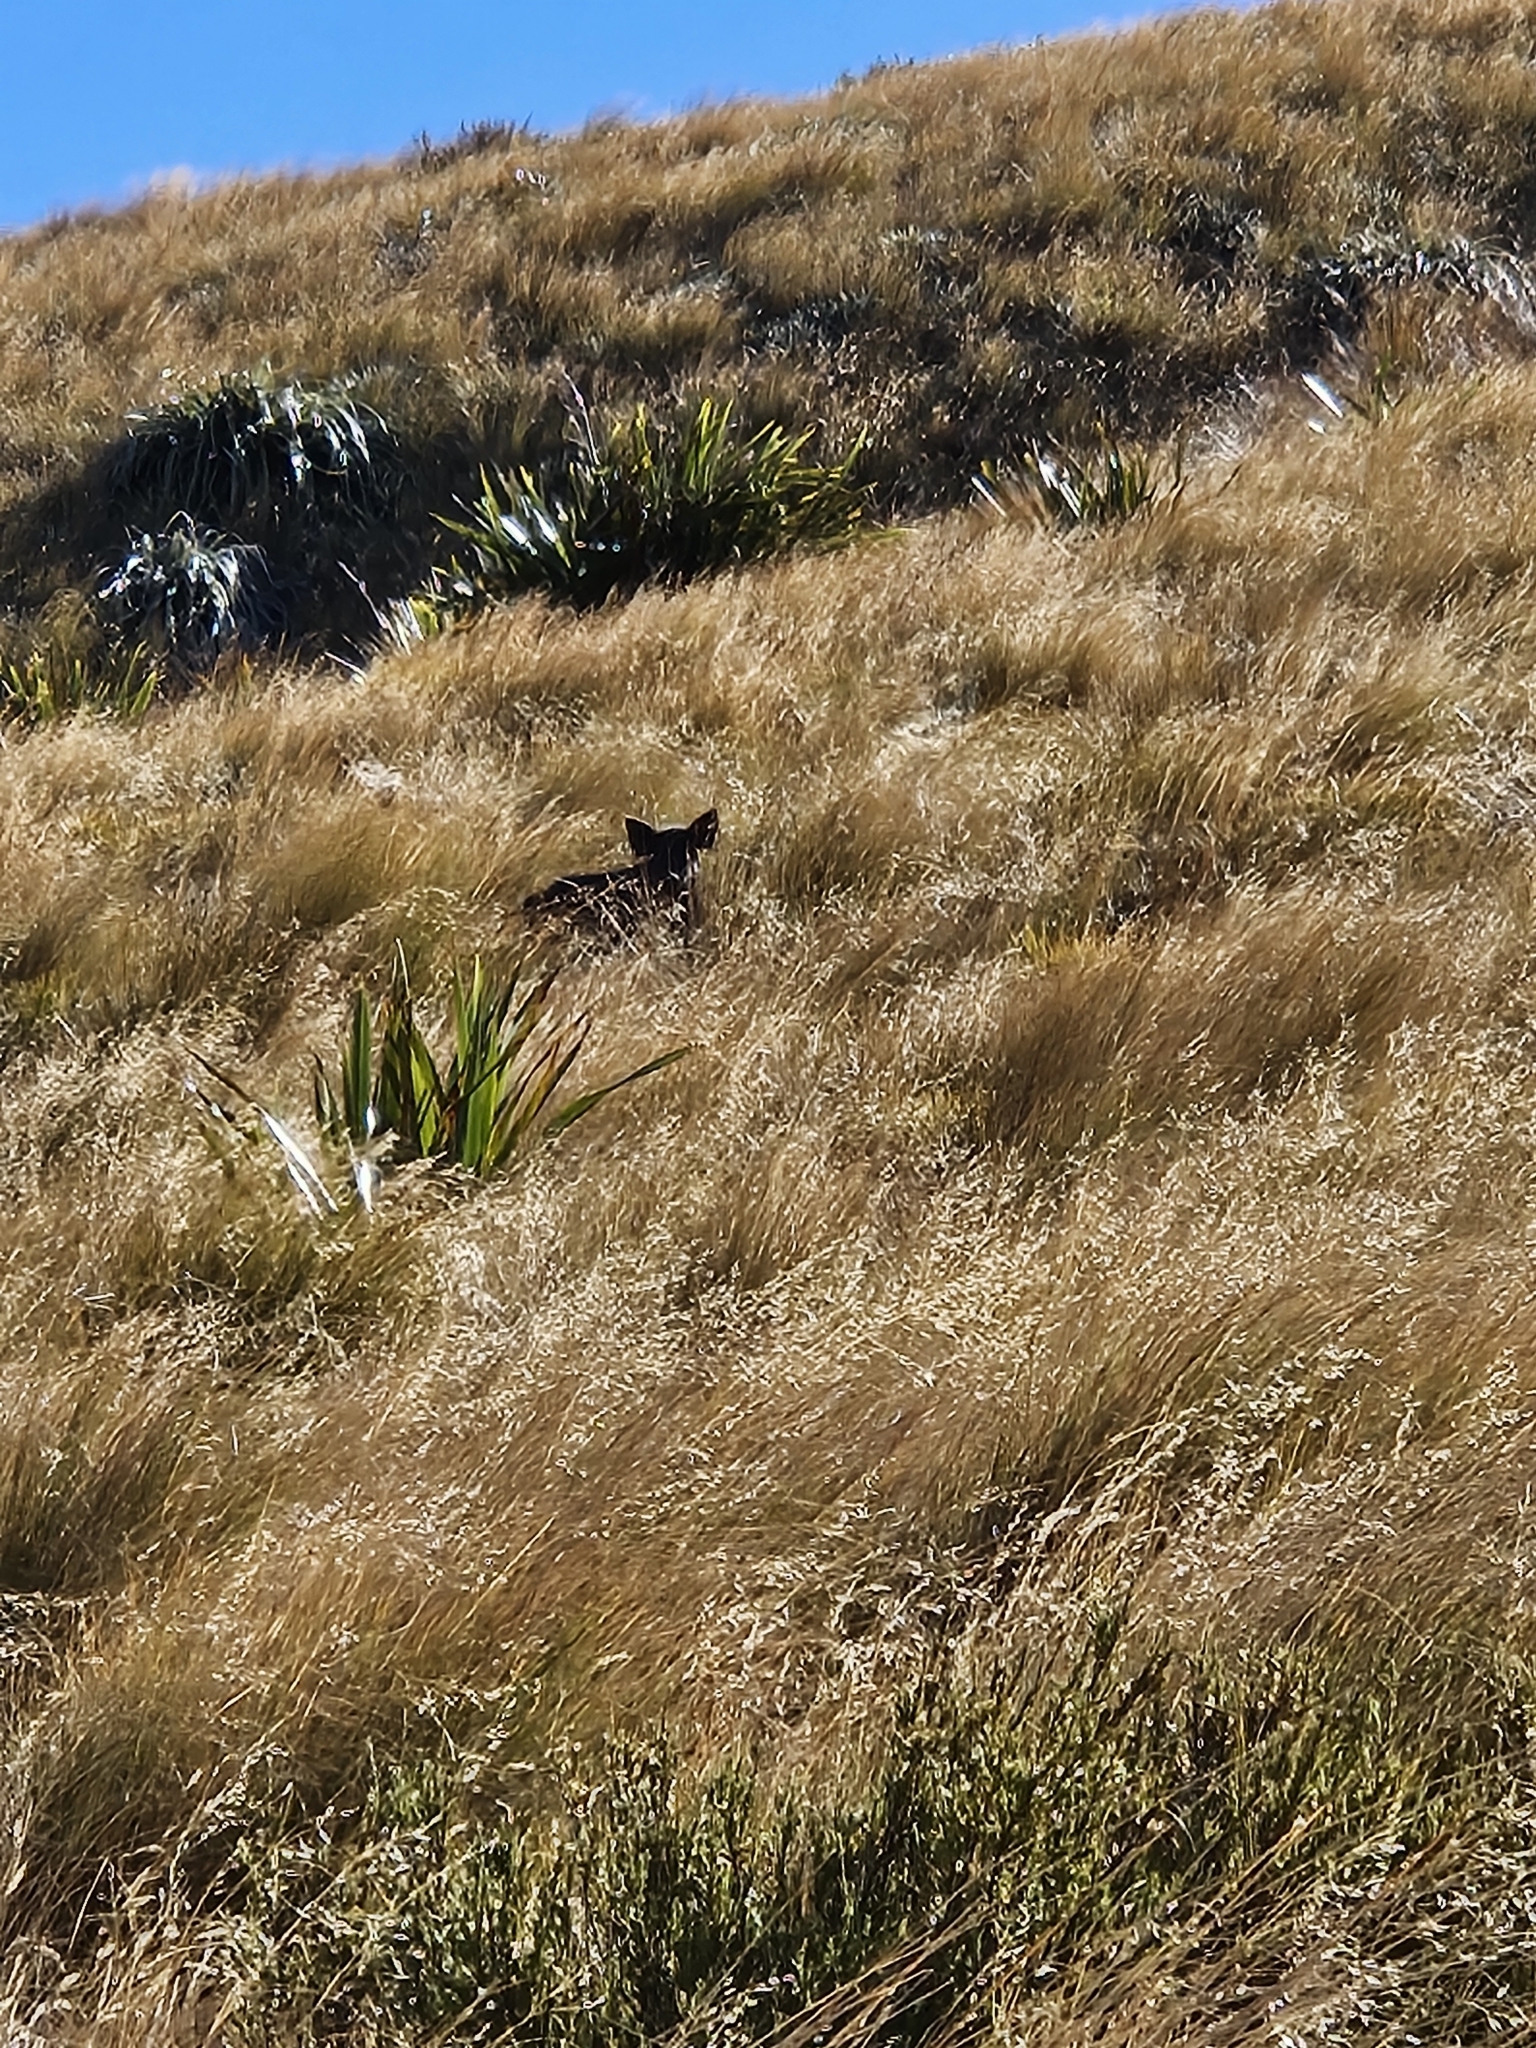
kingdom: Animalia
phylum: Chordata
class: Mammalia
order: Artiodactyla
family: Suidae
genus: Sus
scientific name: Sus scrofa
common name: Wild boar
